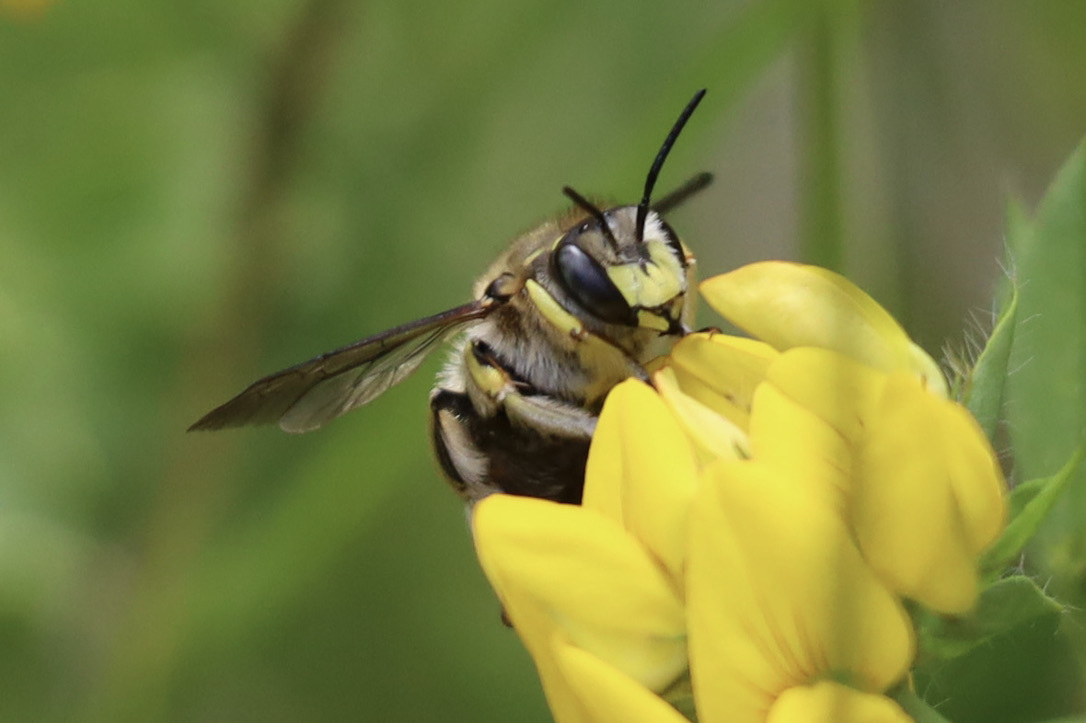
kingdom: Animalia
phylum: Arthropoda
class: Insecta
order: Hymenoptera
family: Megachilidae
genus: Anthidium
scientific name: Anthidium manicatum
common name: Wool carder bee
